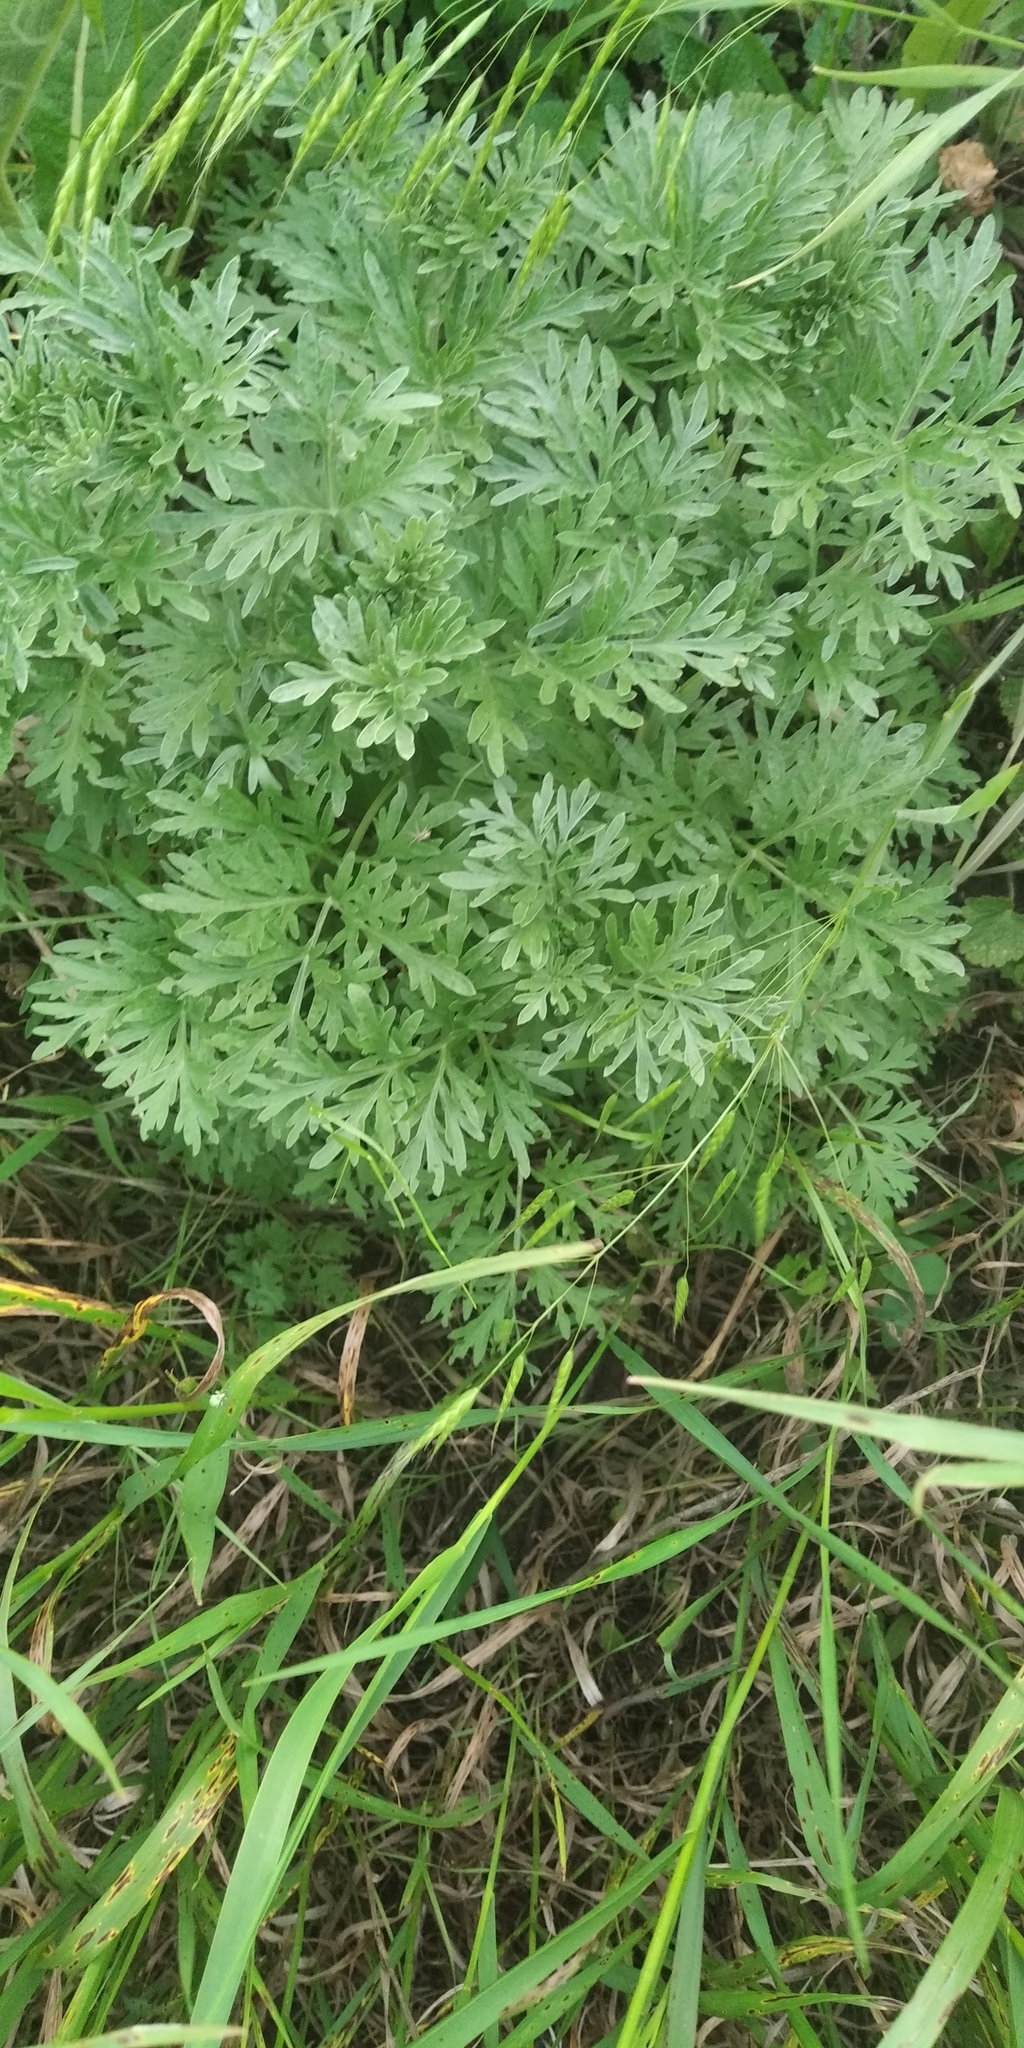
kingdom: Plantae
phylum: Tracheophyta
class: Magnoliopsida
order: Asterales
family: Asteraceae
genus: Artemisia
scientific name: Artemisia absinthium
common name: Wormwood
